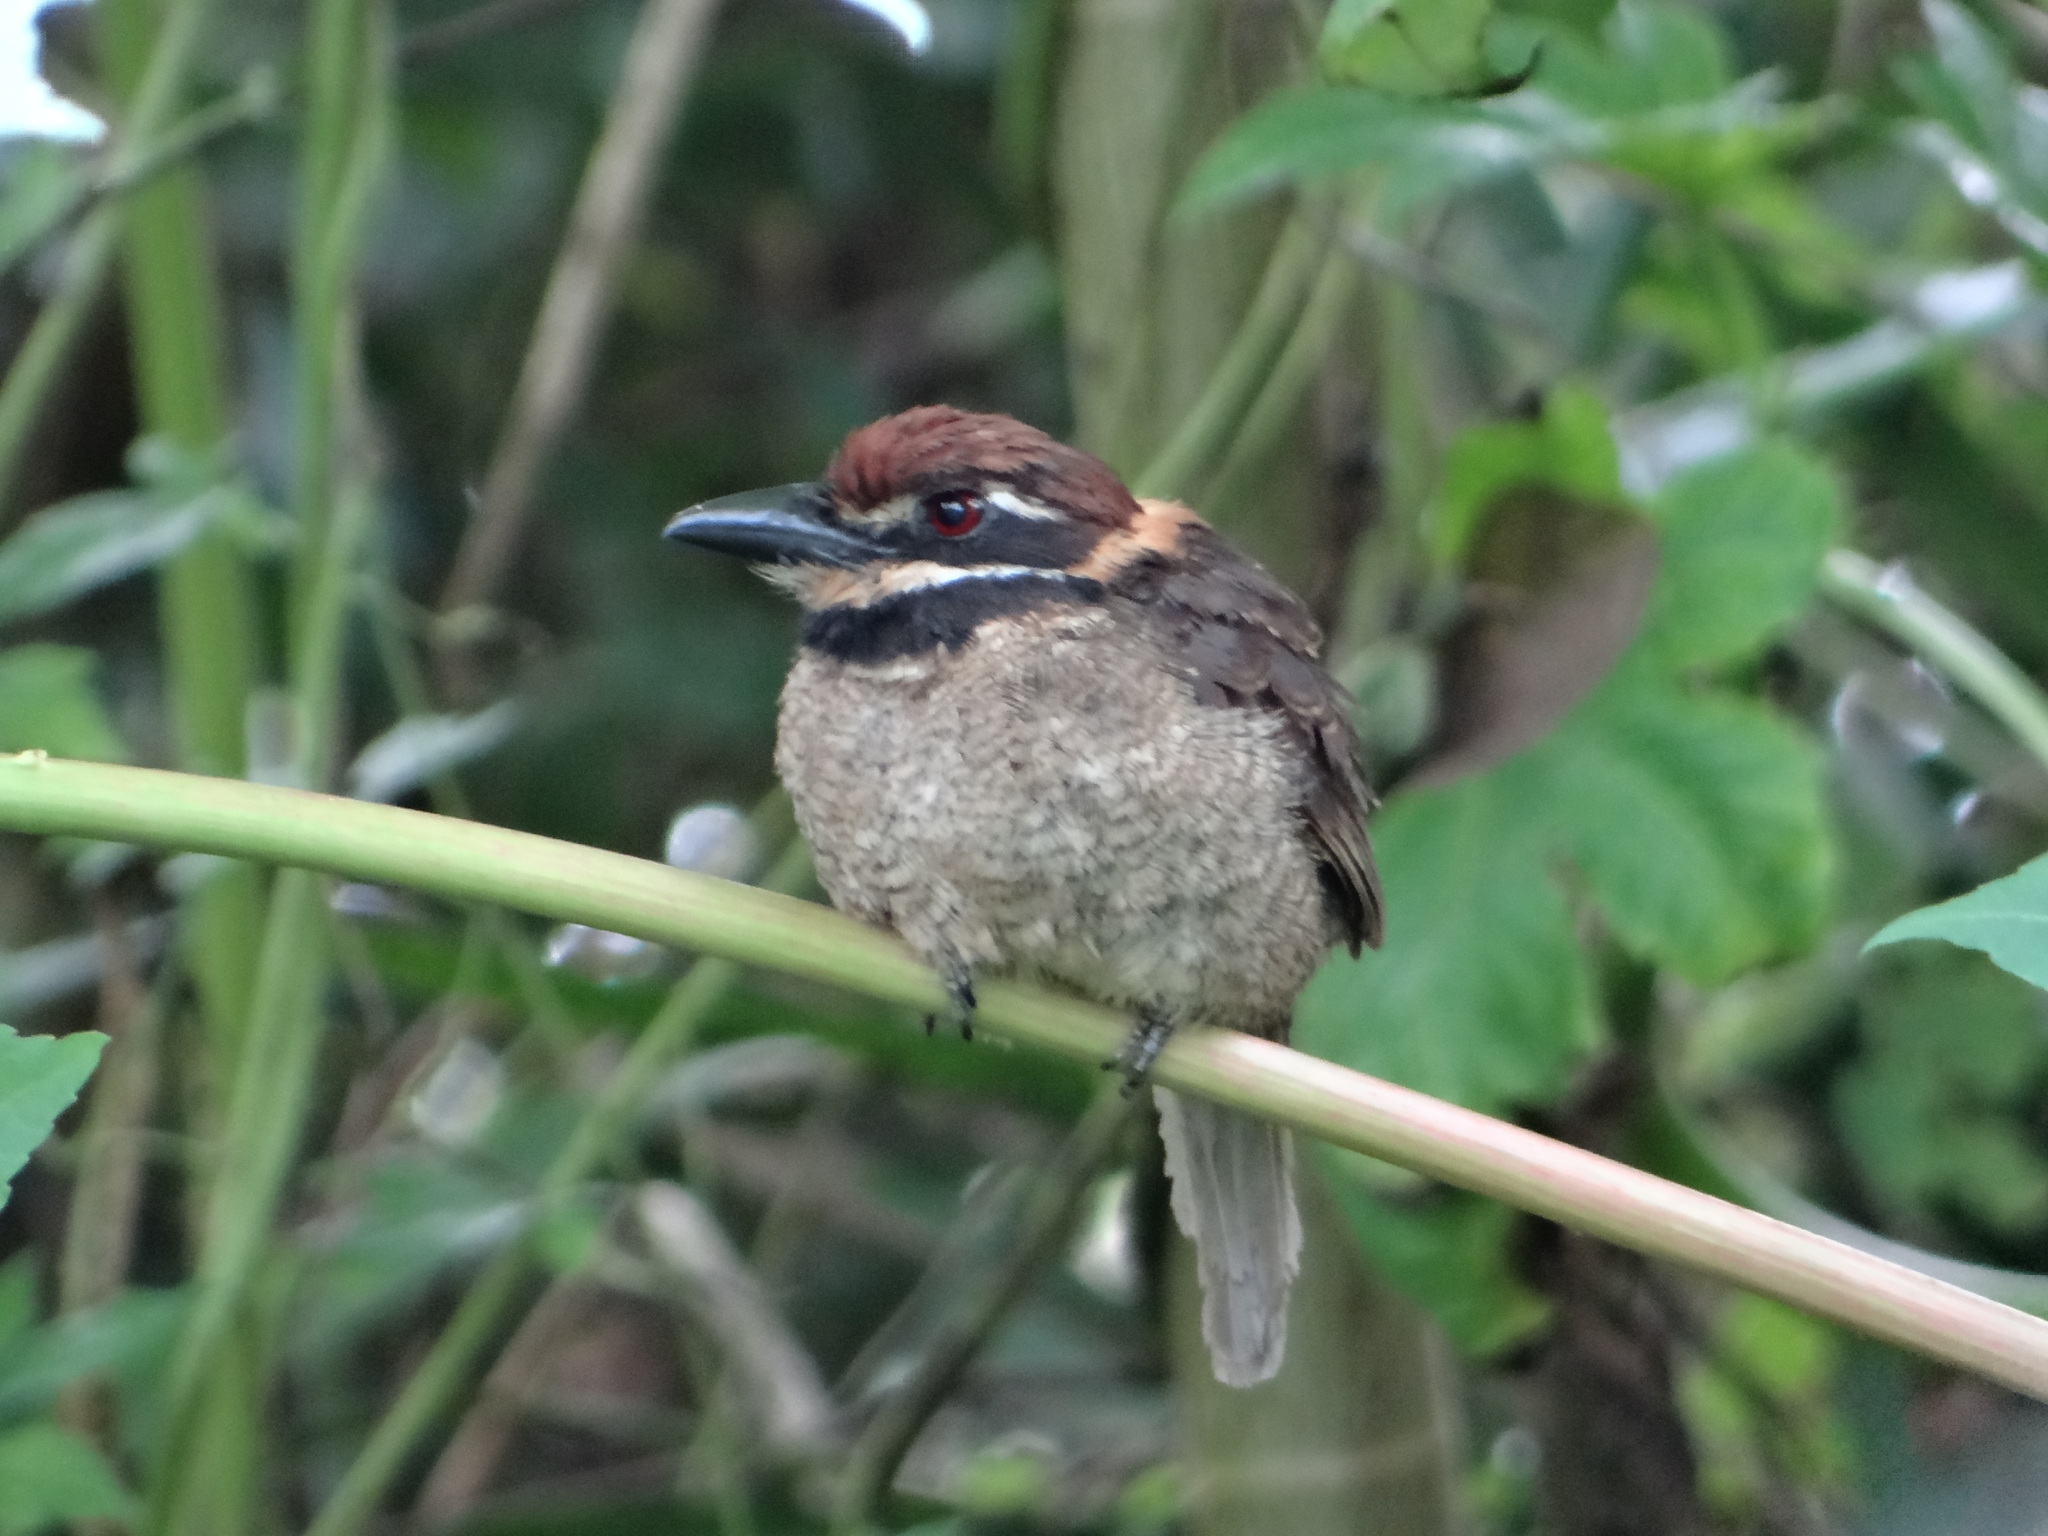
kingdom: Animalia
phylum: Chordata
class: Aves
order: Piciformes
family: Bucconidae
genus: Bucco
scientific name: Bucco macrodactylus
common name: Chestnut-capped puffbird
